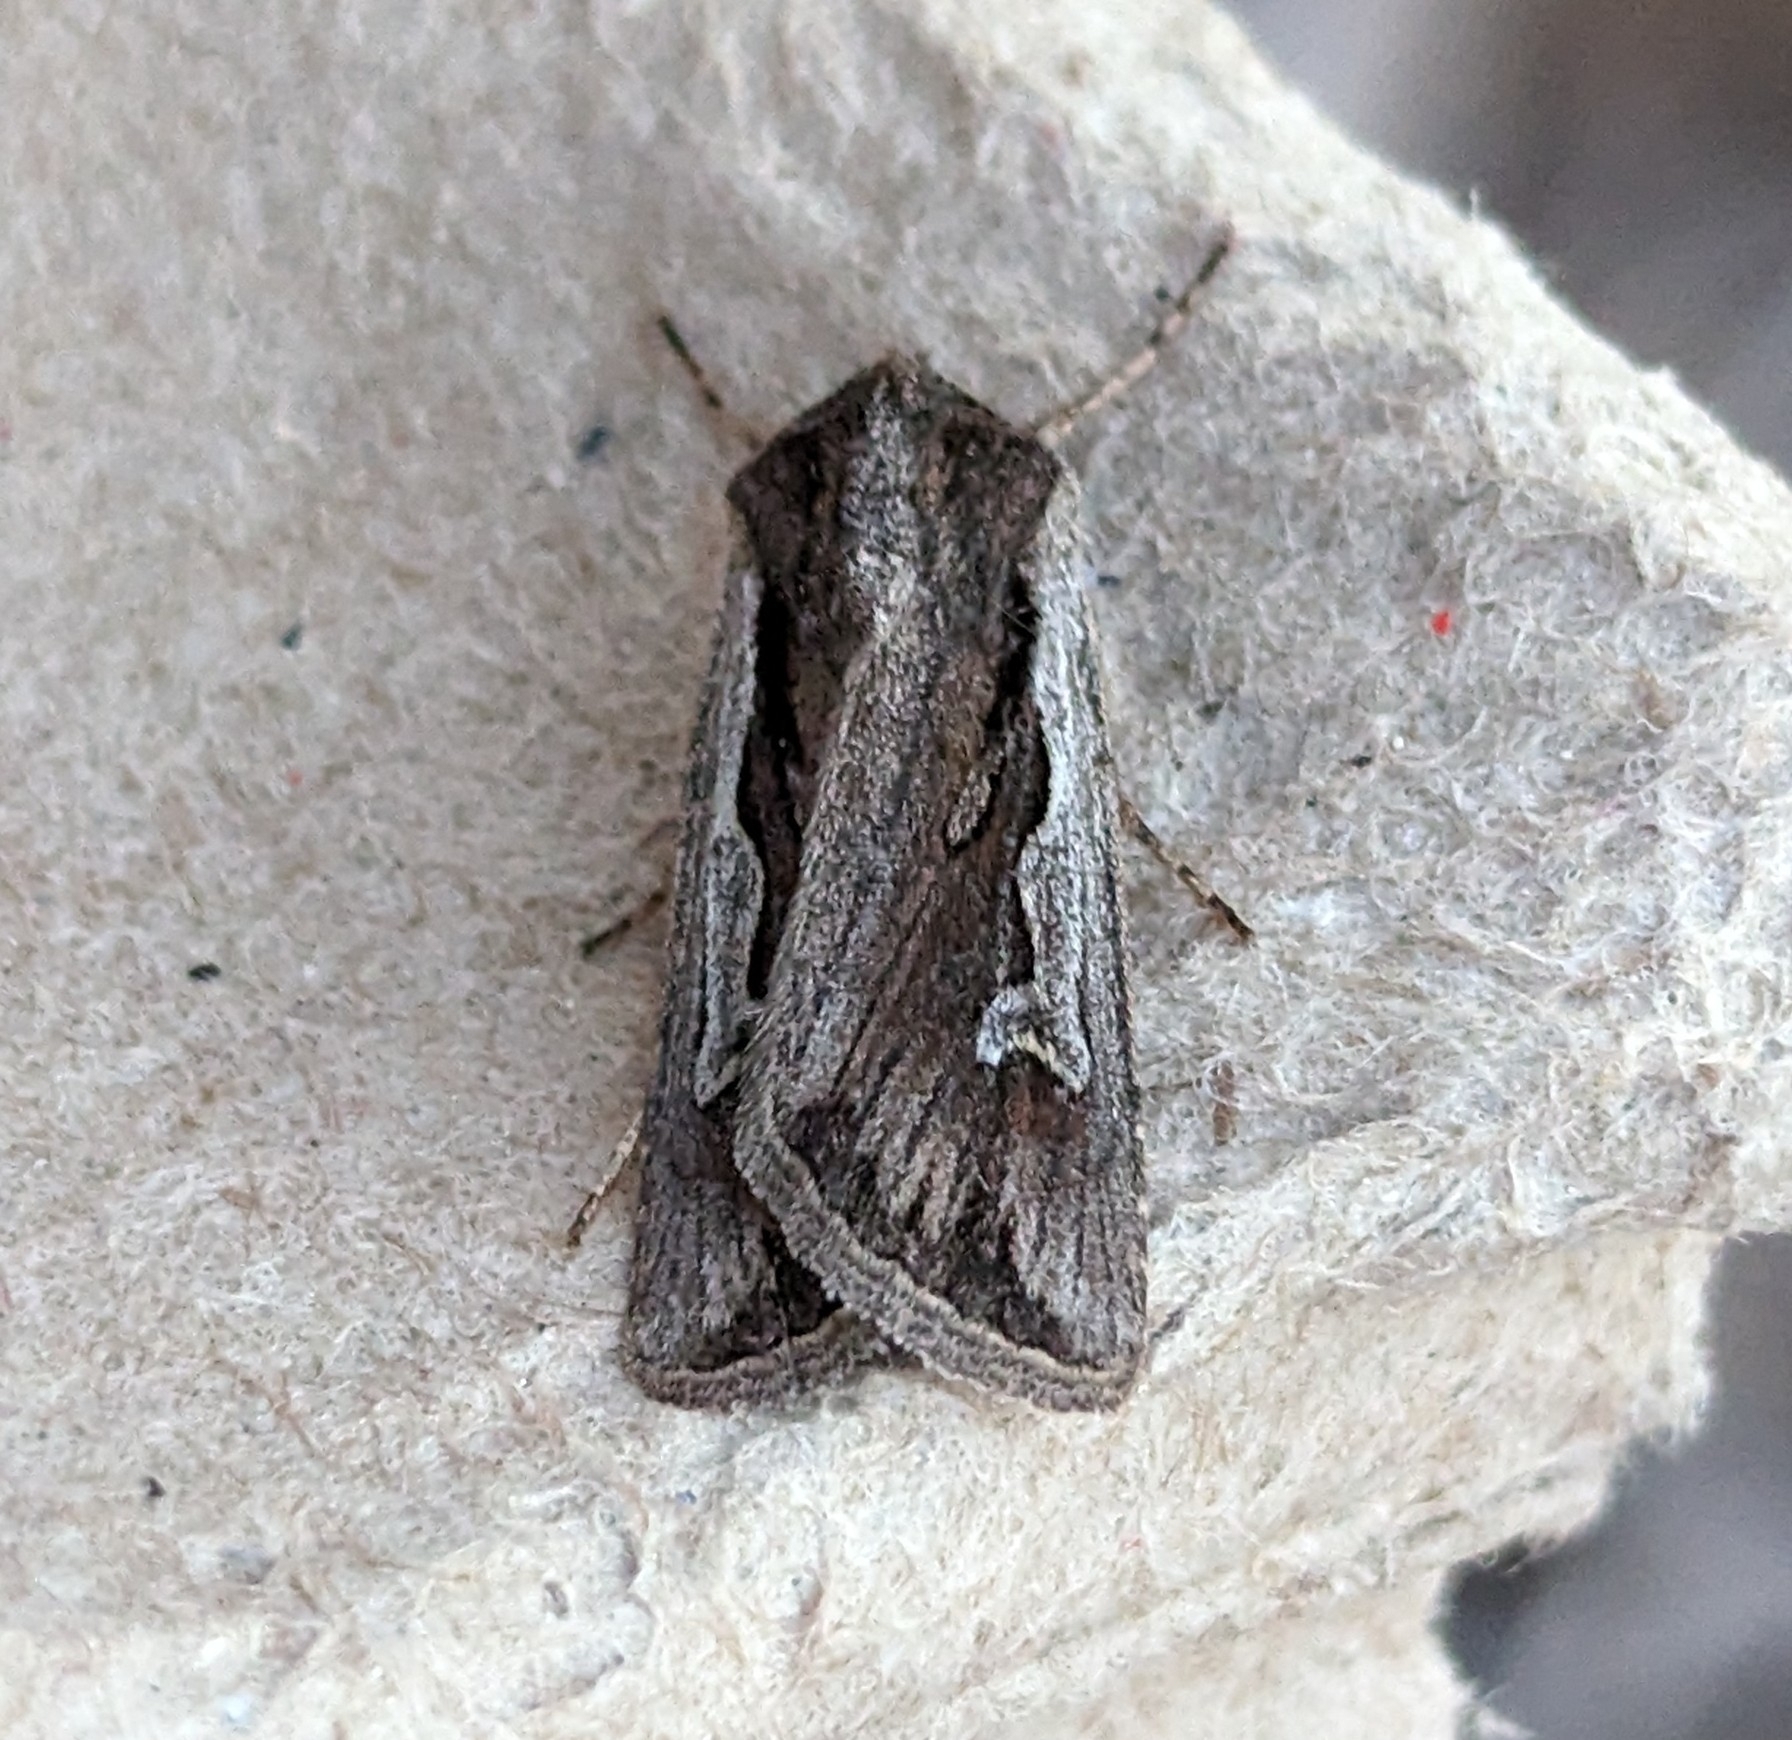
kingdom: Animalia
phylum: Arthropoda
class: Insecta
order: Lepidoptera
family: Noctuidae
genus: Euxoa
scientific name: Euxoa hollemani
